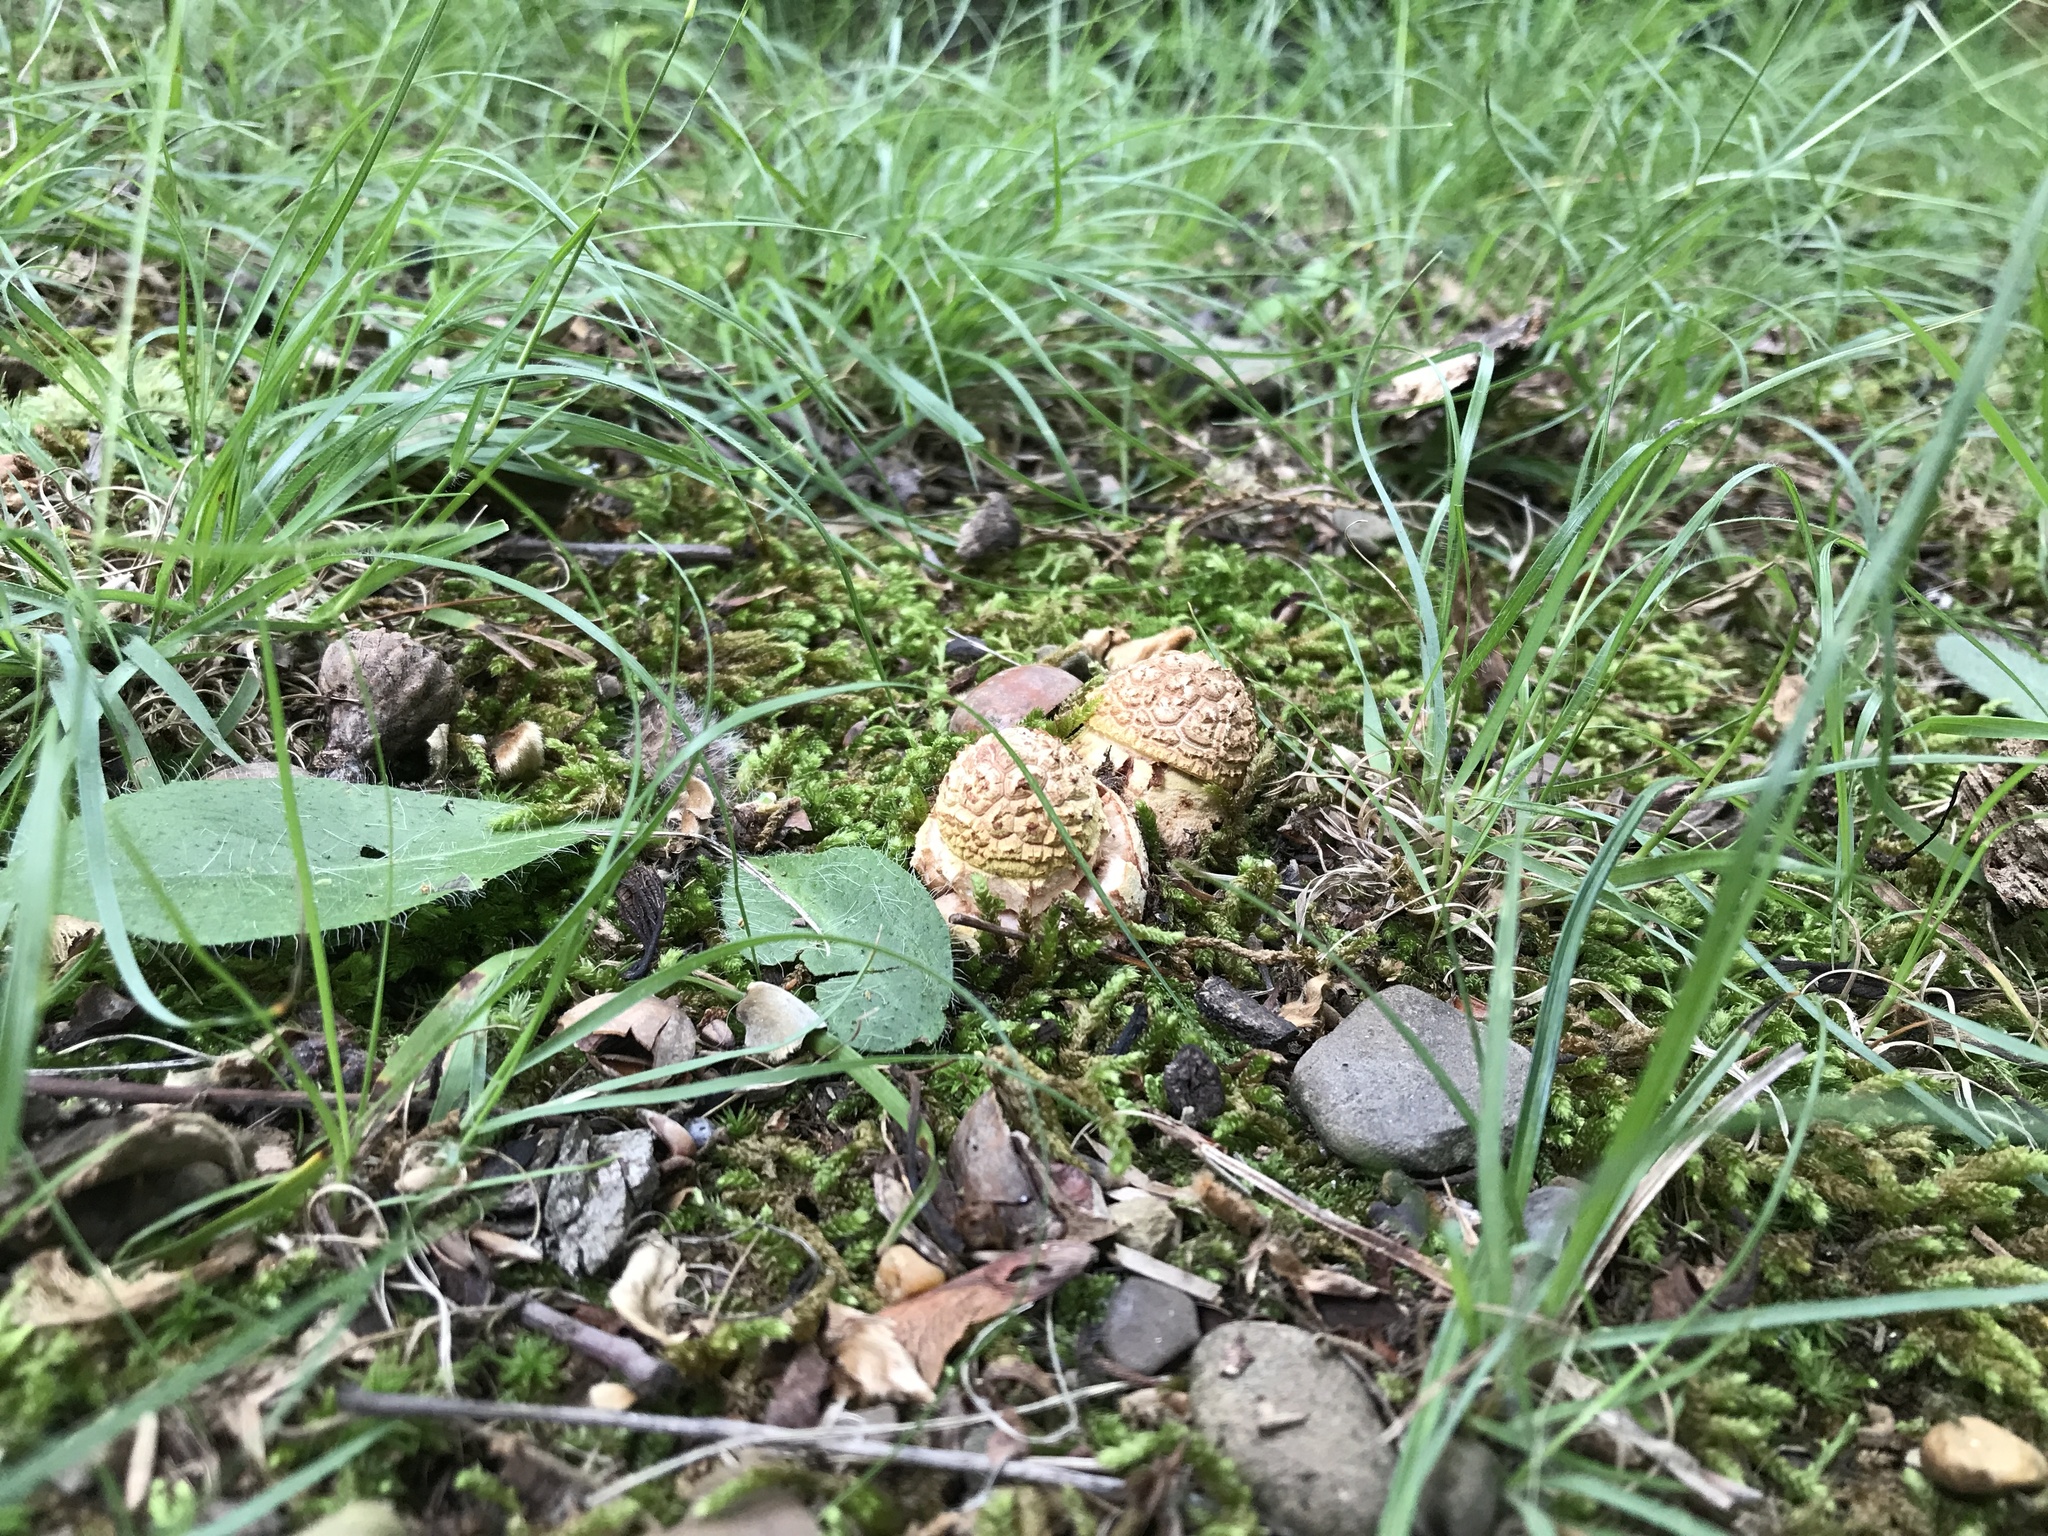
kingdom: Fungi
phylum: Basidiomycota
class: Agaricomycetes
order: Agaricales
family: Amanitaceae
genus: Amanita
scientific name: Amanita flavorubens
